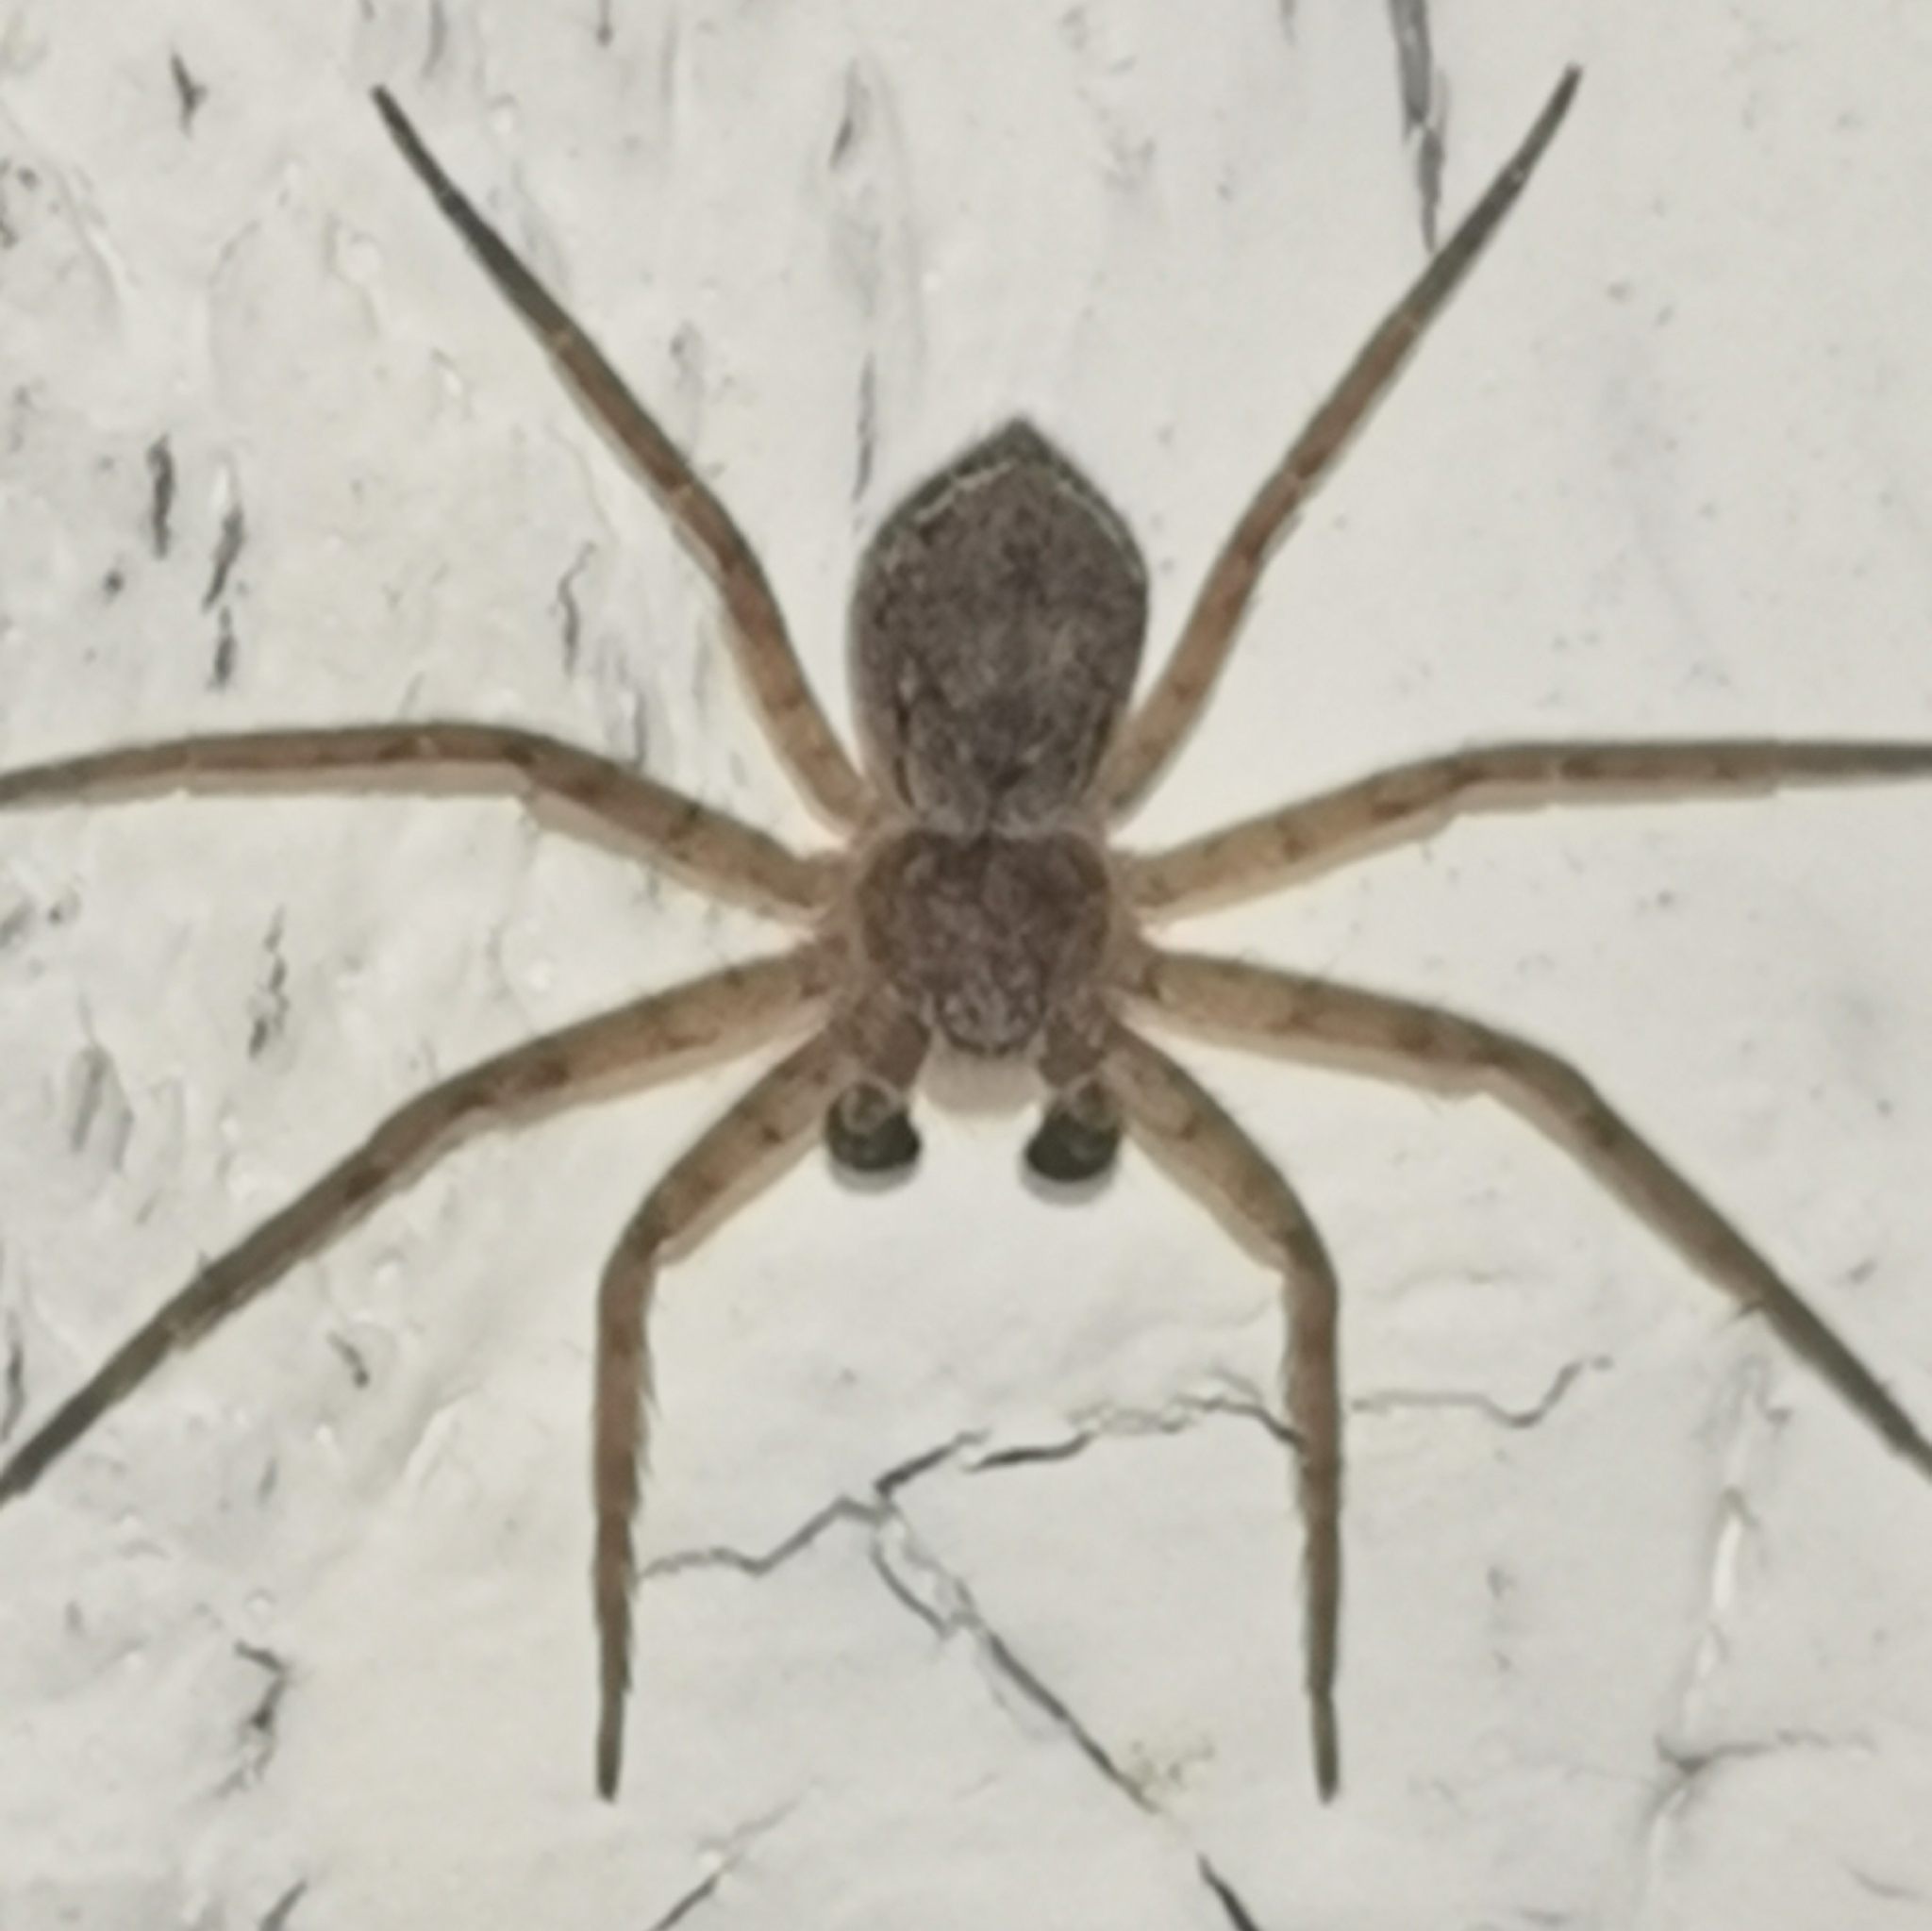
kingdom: Animalia
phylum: Arthropoda
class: Arachnida
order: Araneae
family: Philodromidae
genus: Philodromus
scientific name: Philodromus fuscomarginatus
